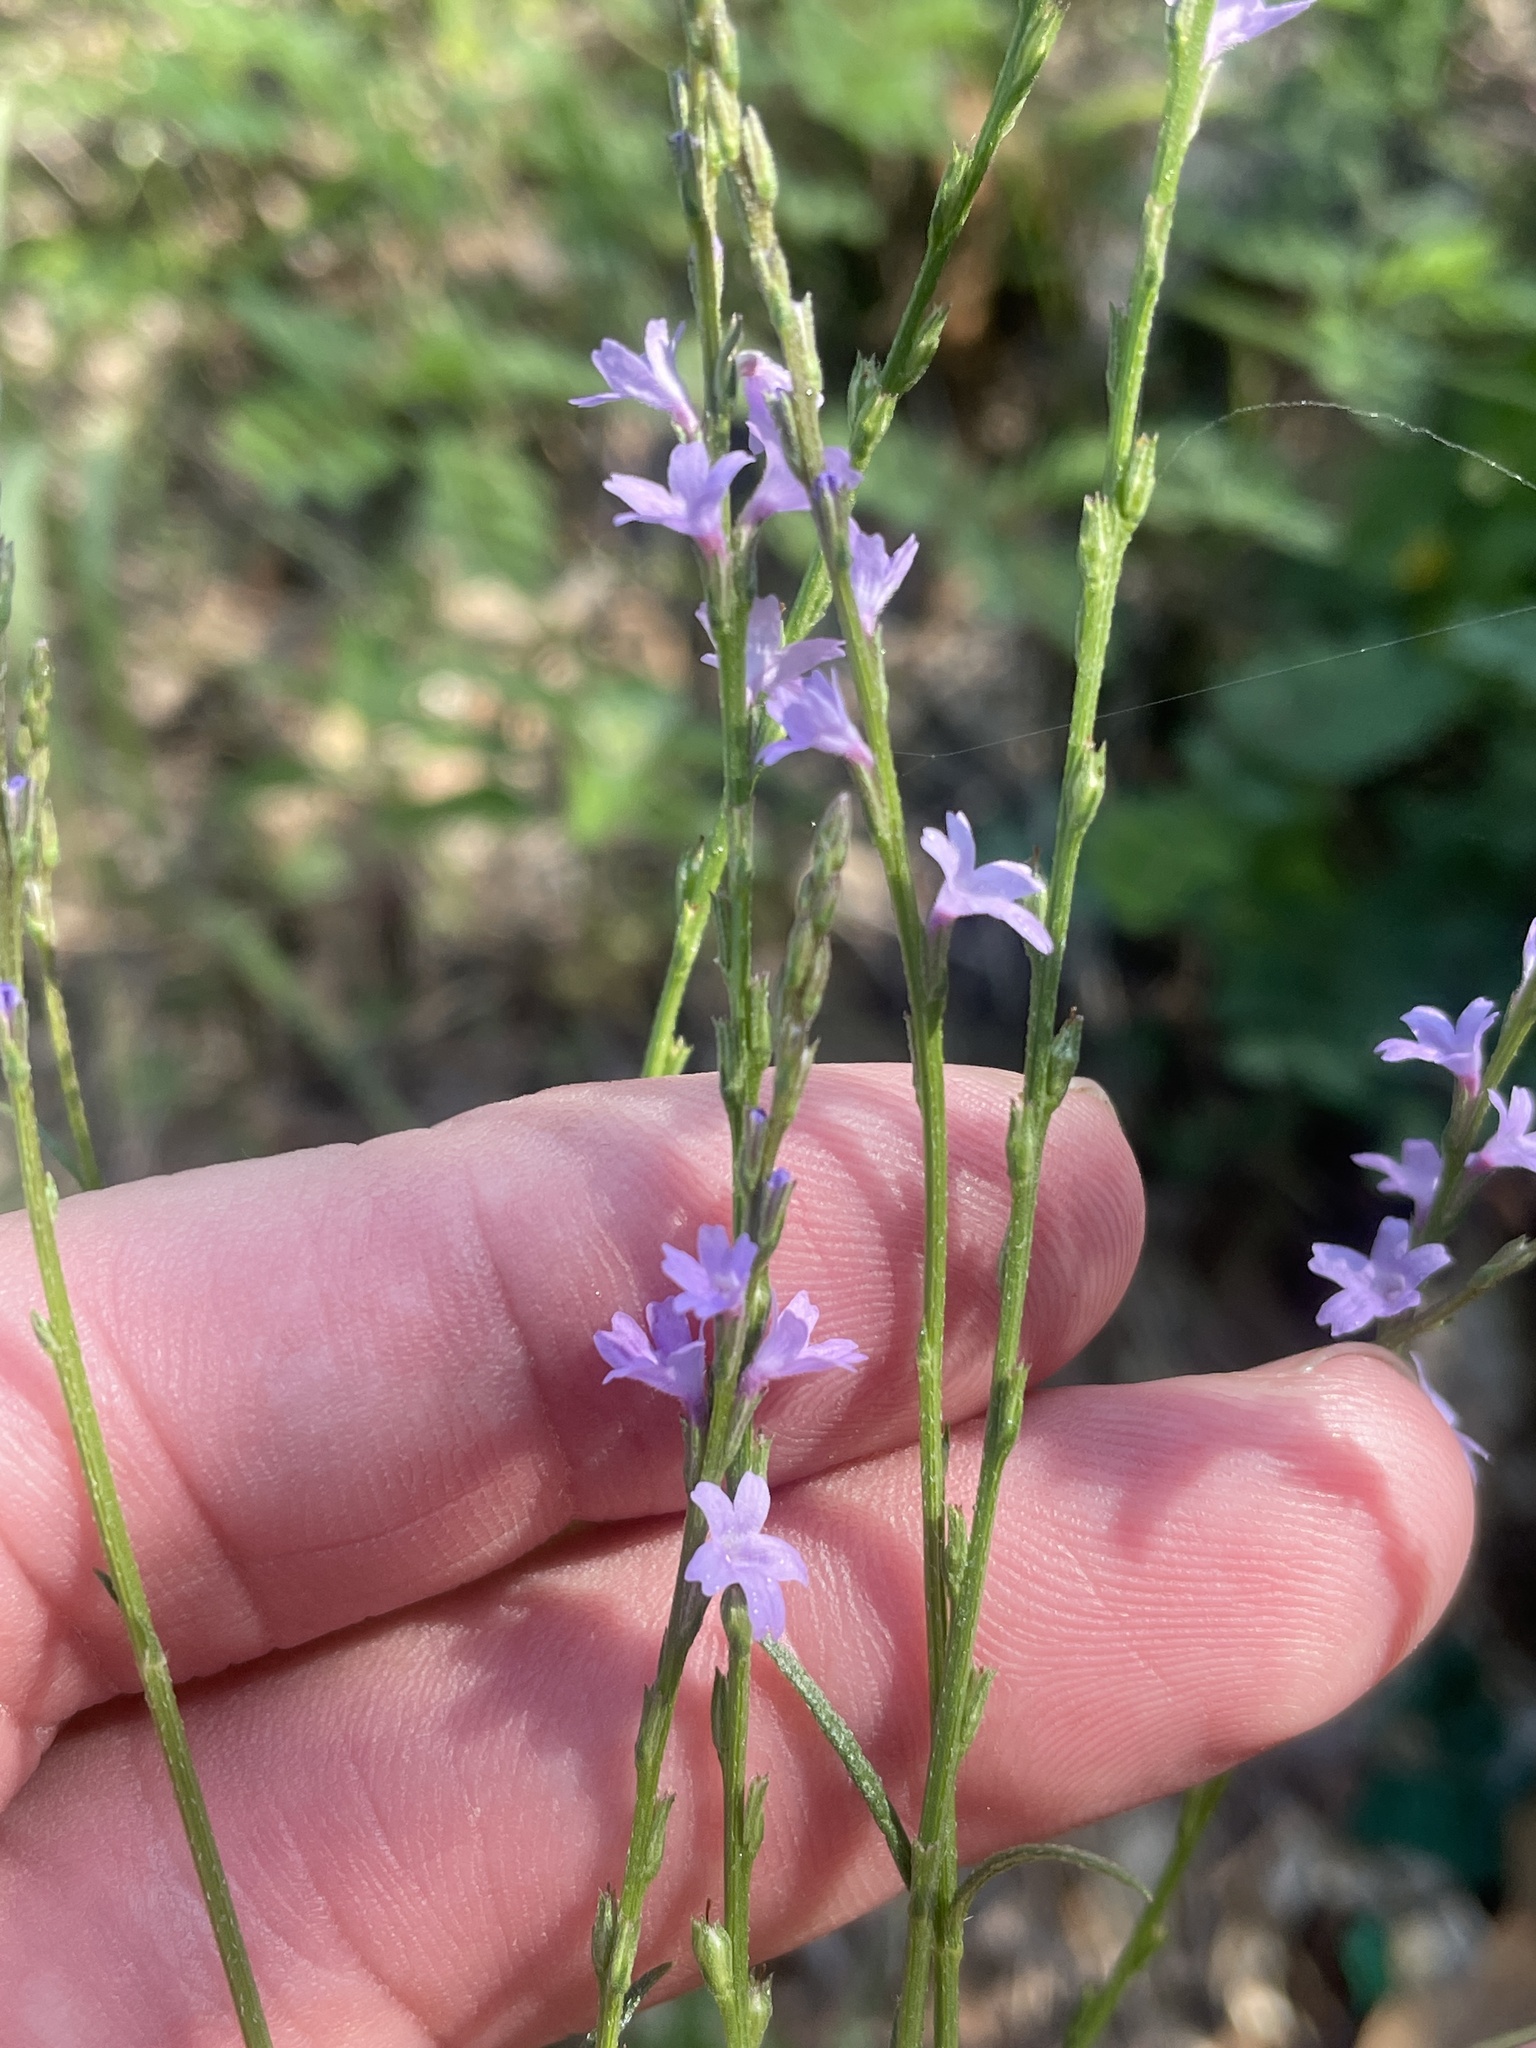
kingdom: Plantae
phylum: Tracheophyta
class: Magnoliopsida
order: Lamiales
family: Verbenaceae
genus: Verbena
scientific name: Verbena halei
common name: Texas vervain
